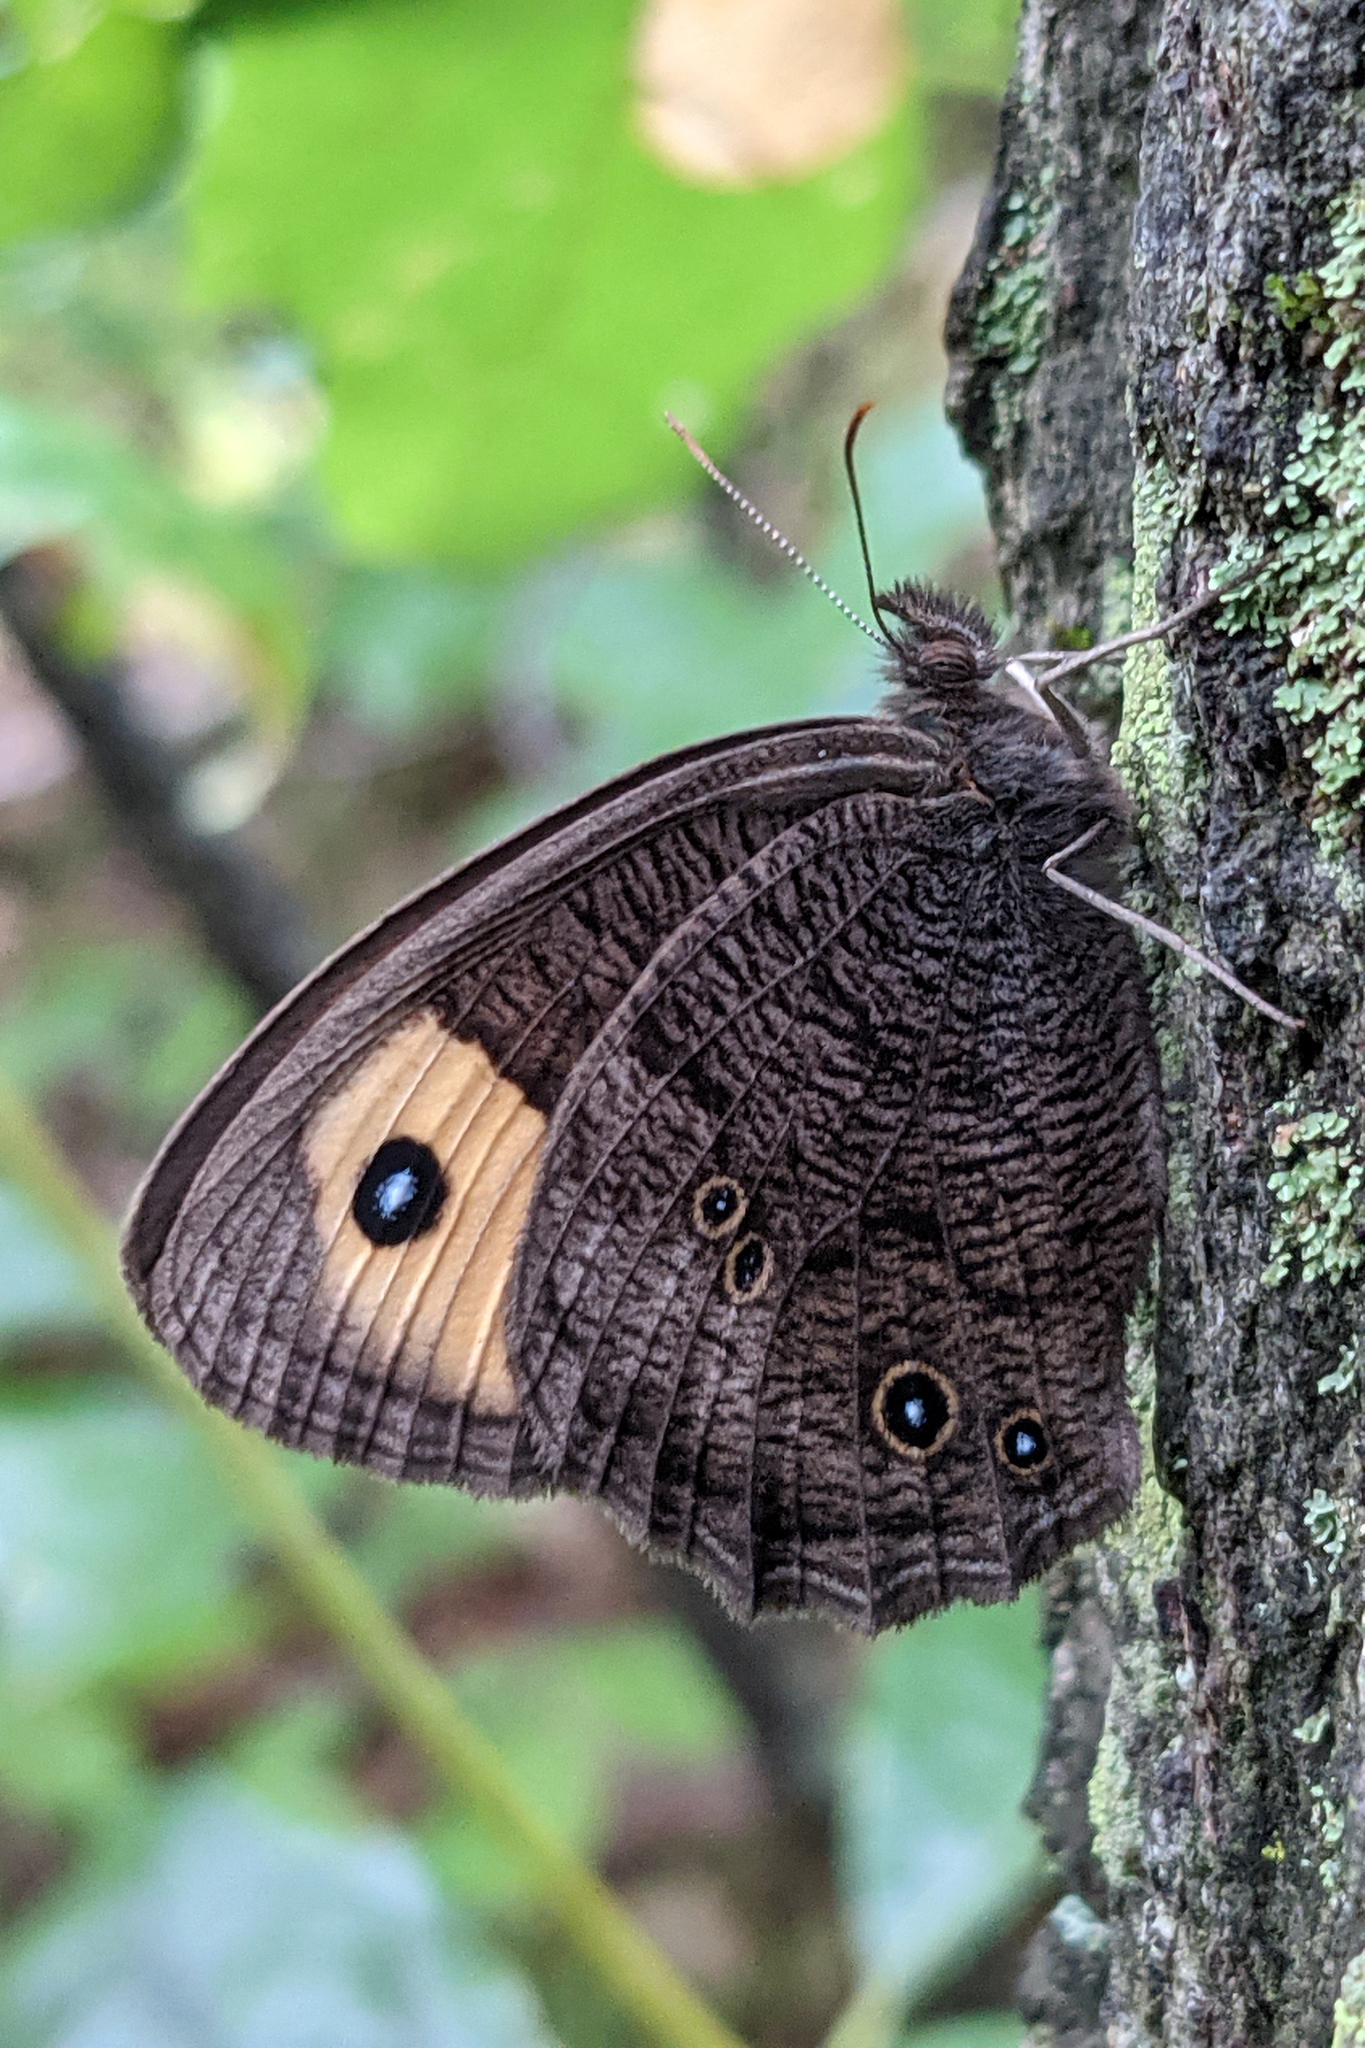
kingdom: Animalia
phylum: Arthropoda
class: Insecta
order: Lepidoptera
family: Nymphalidae
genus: Cercyonis
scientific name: Cercyonis pegala
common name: Common wood-nymph
